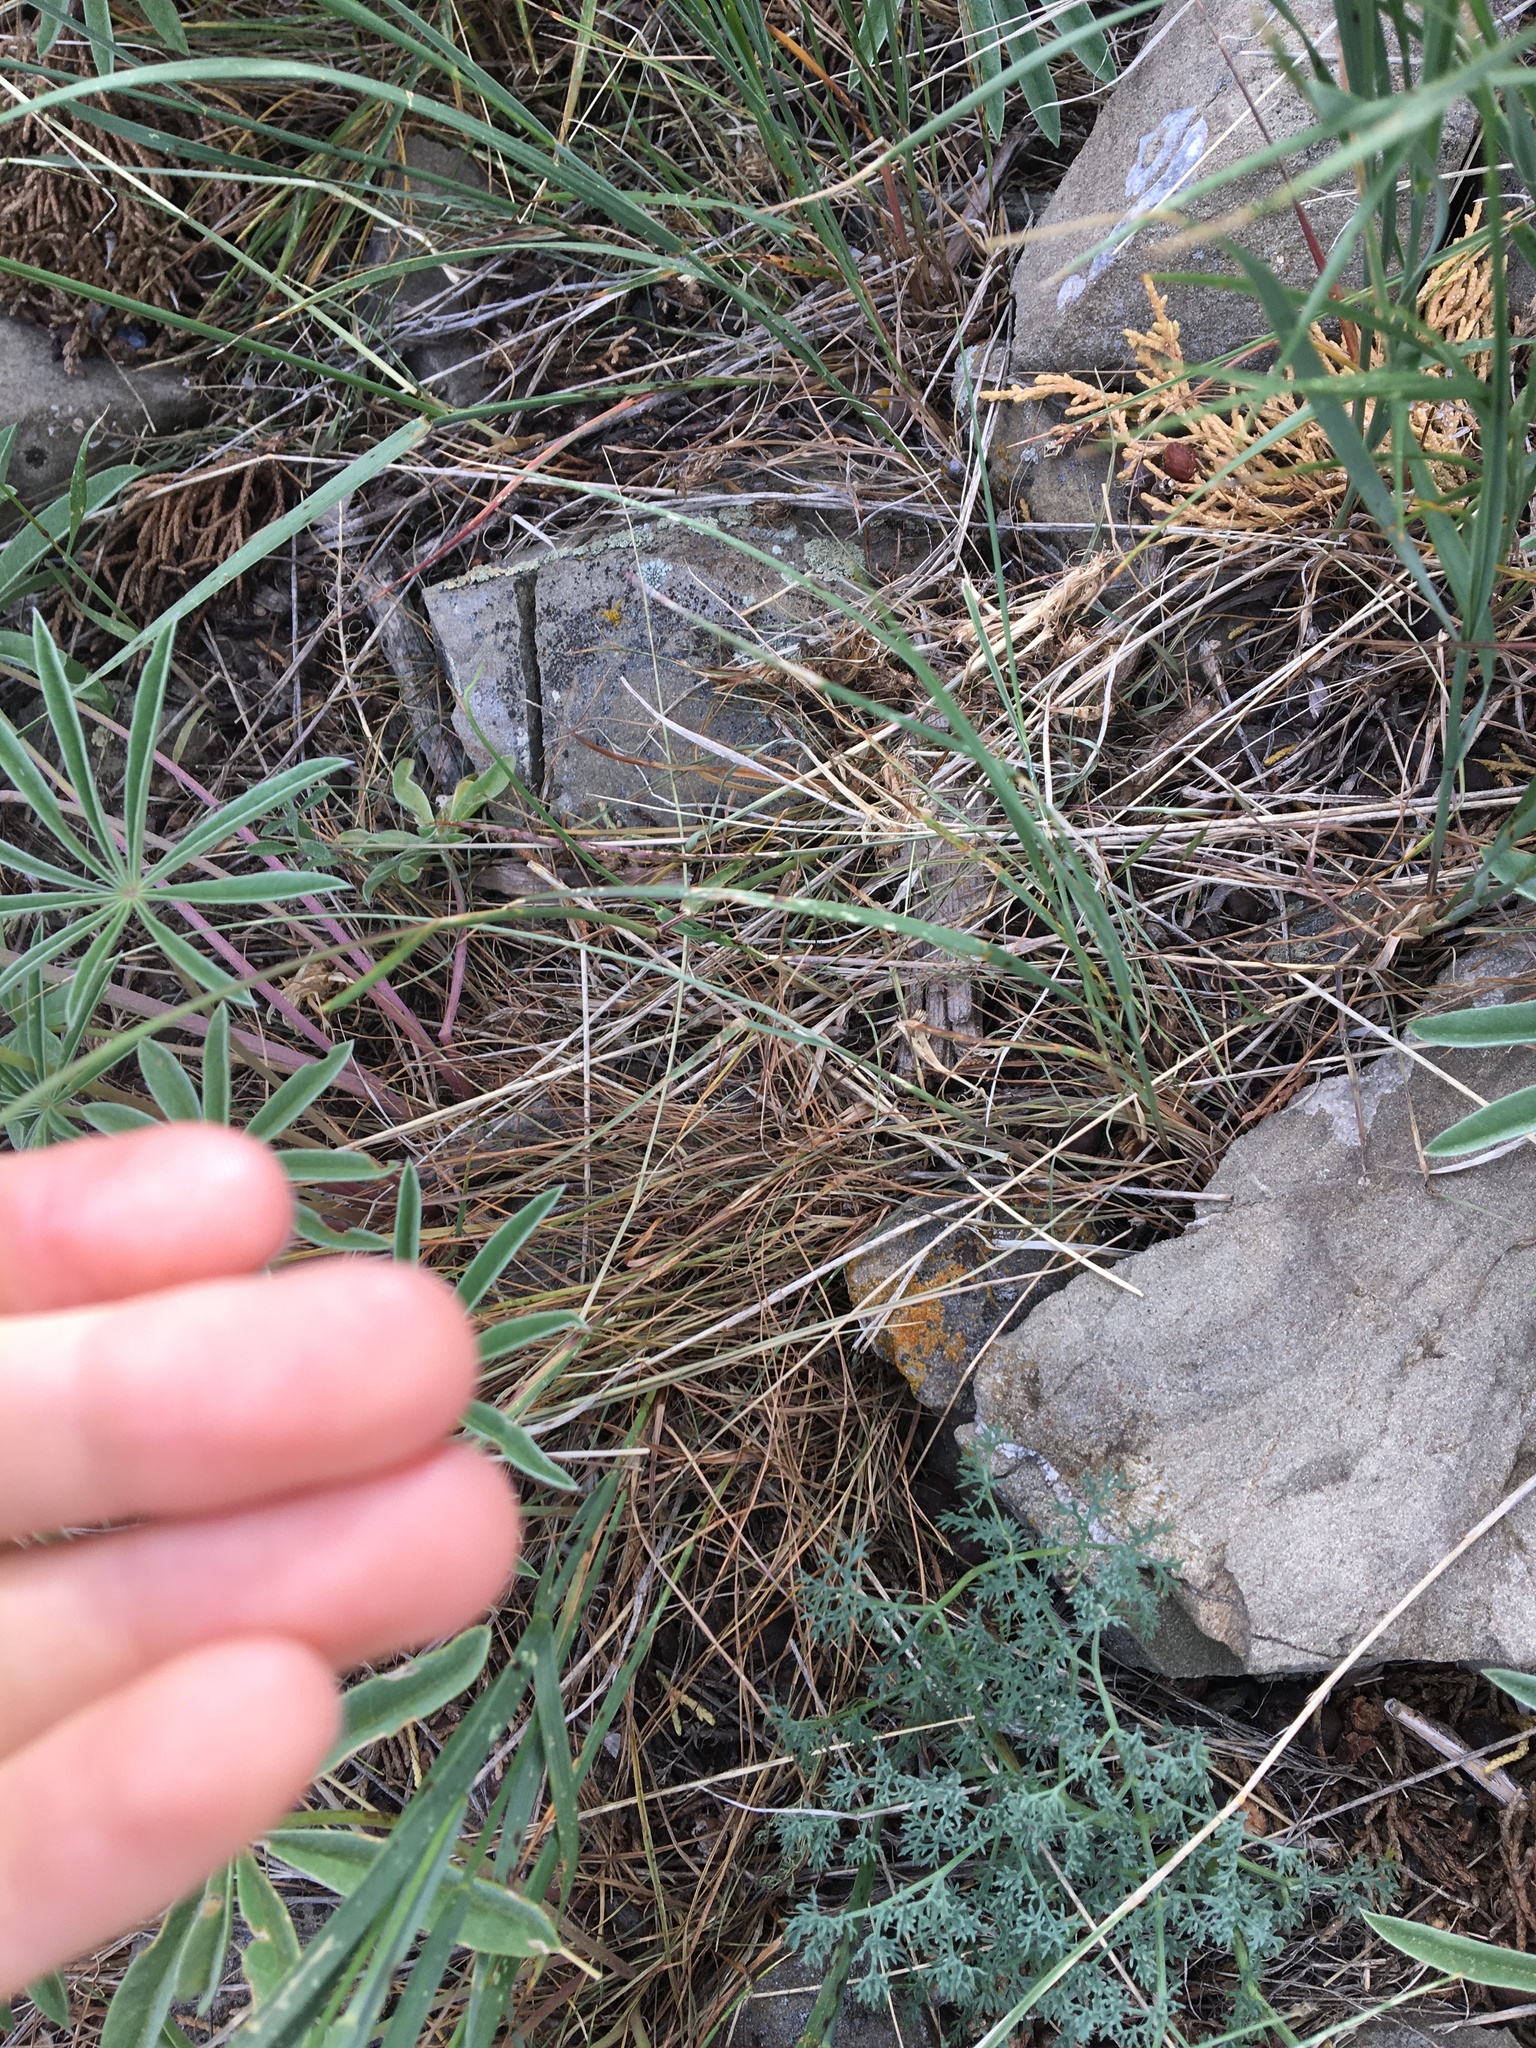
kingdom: Plantae
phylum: Tracheophyta
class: Liliopsida
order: Poales
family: Poaceae
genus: Poa
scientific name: Poa bulbosa
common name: Bulbous bluegrass
